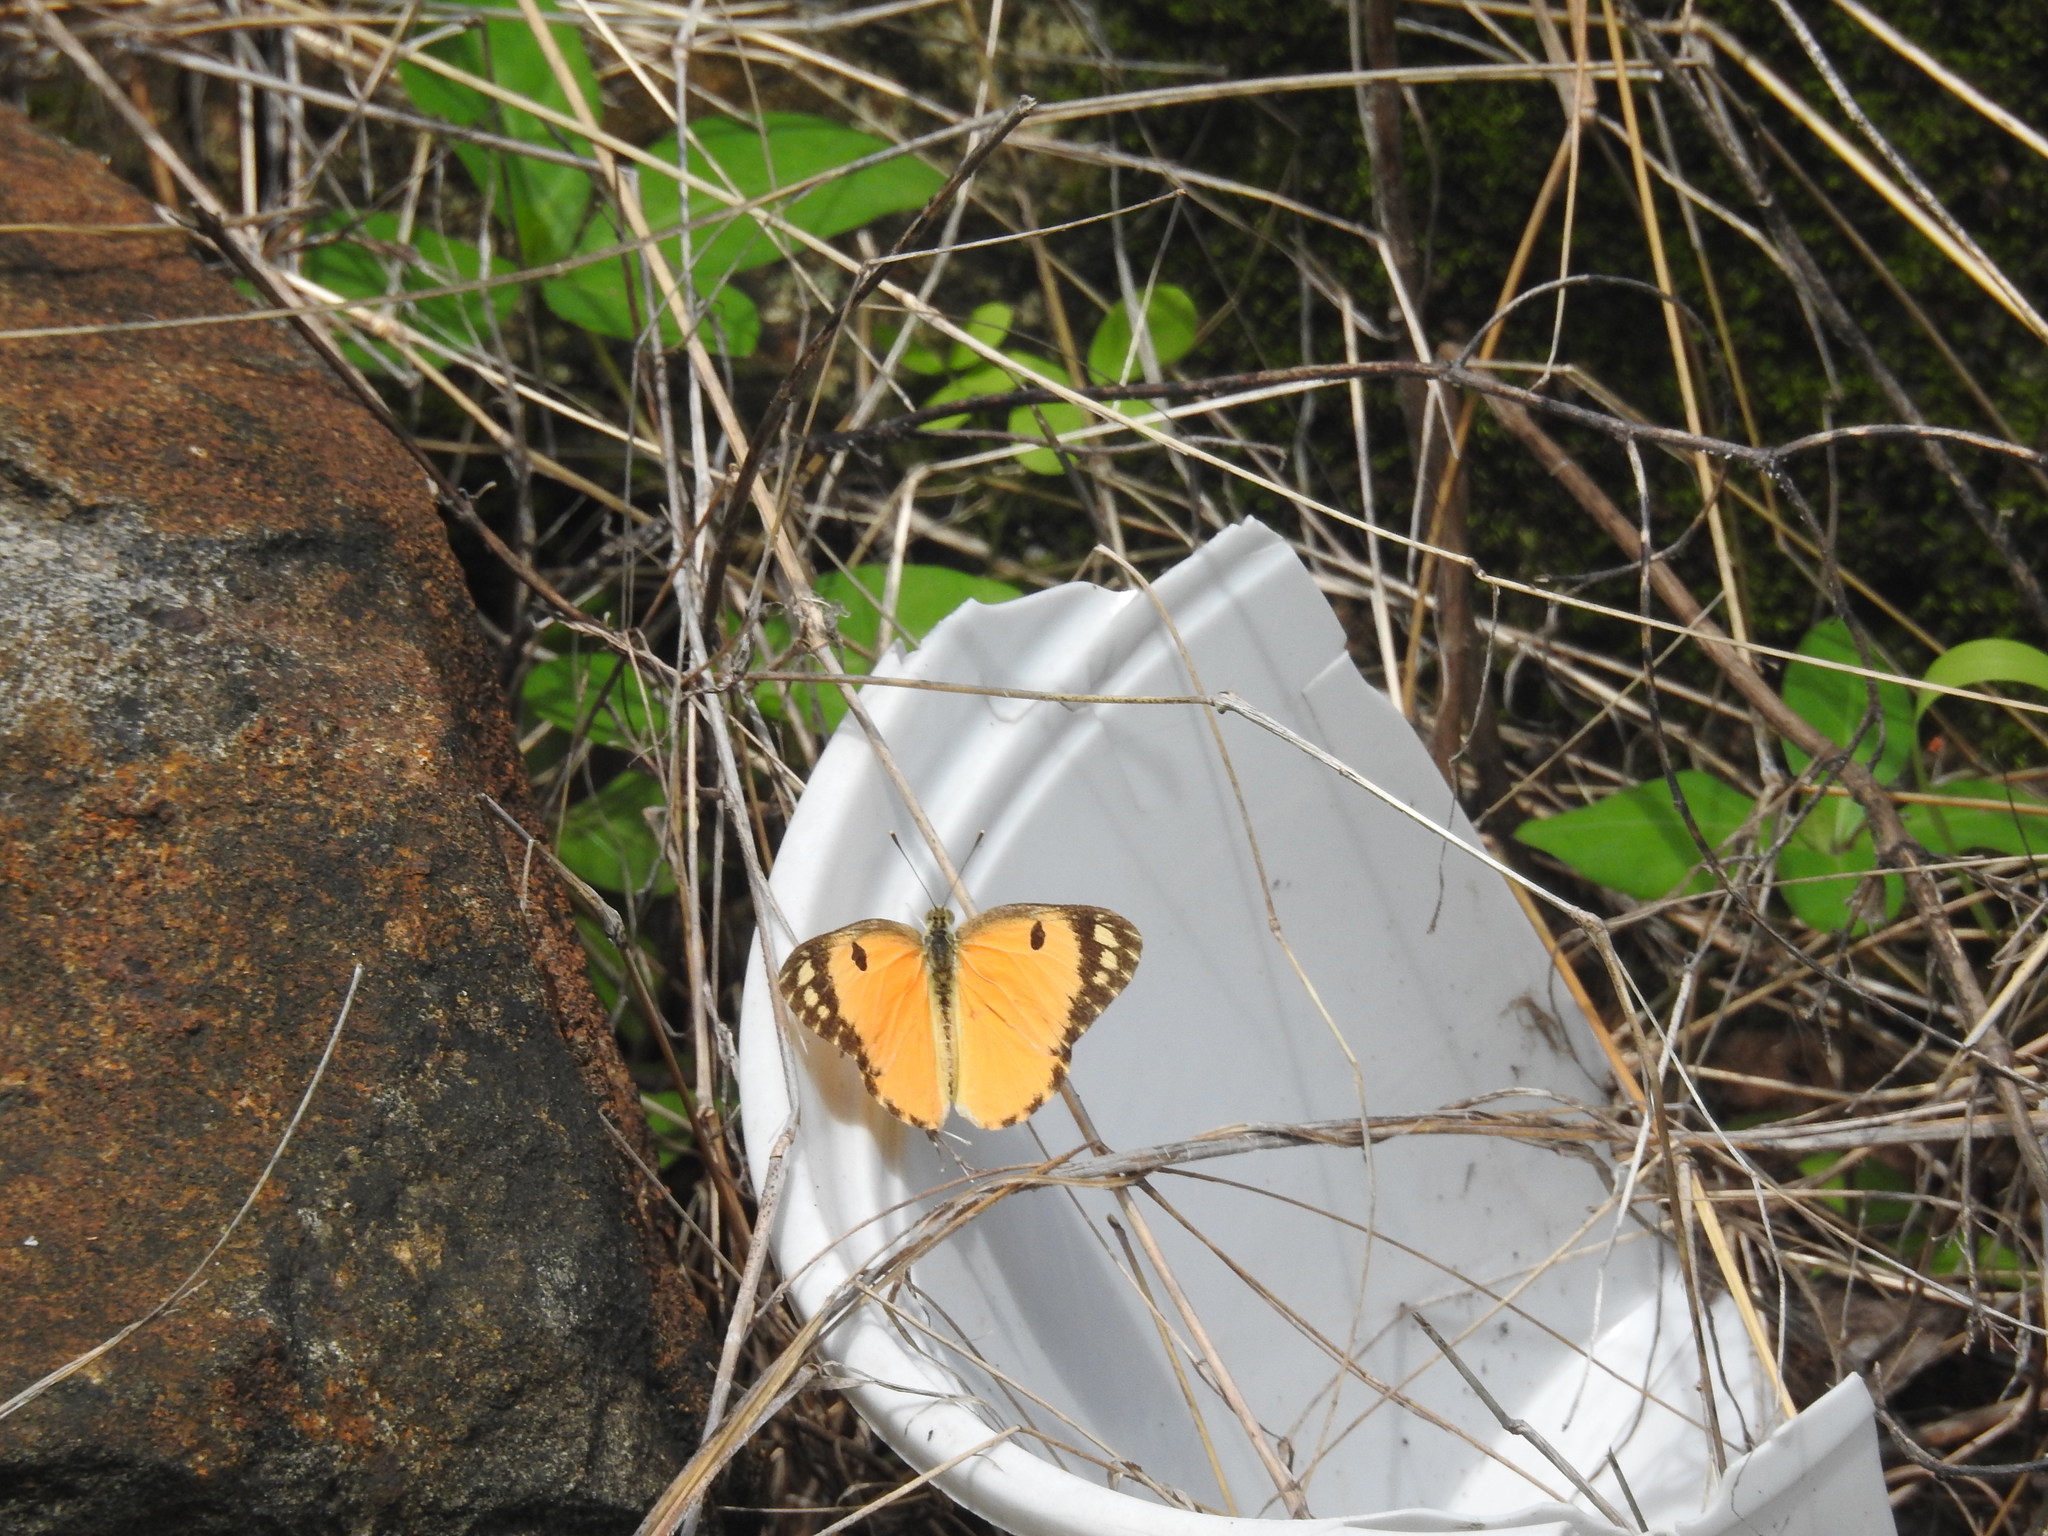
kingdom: Animalia
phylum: Arthropoda
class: Insecta
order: Lepidoptera
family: Pieridae
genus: Colotis
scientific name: Colotis fausta
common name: Large salmon arab
